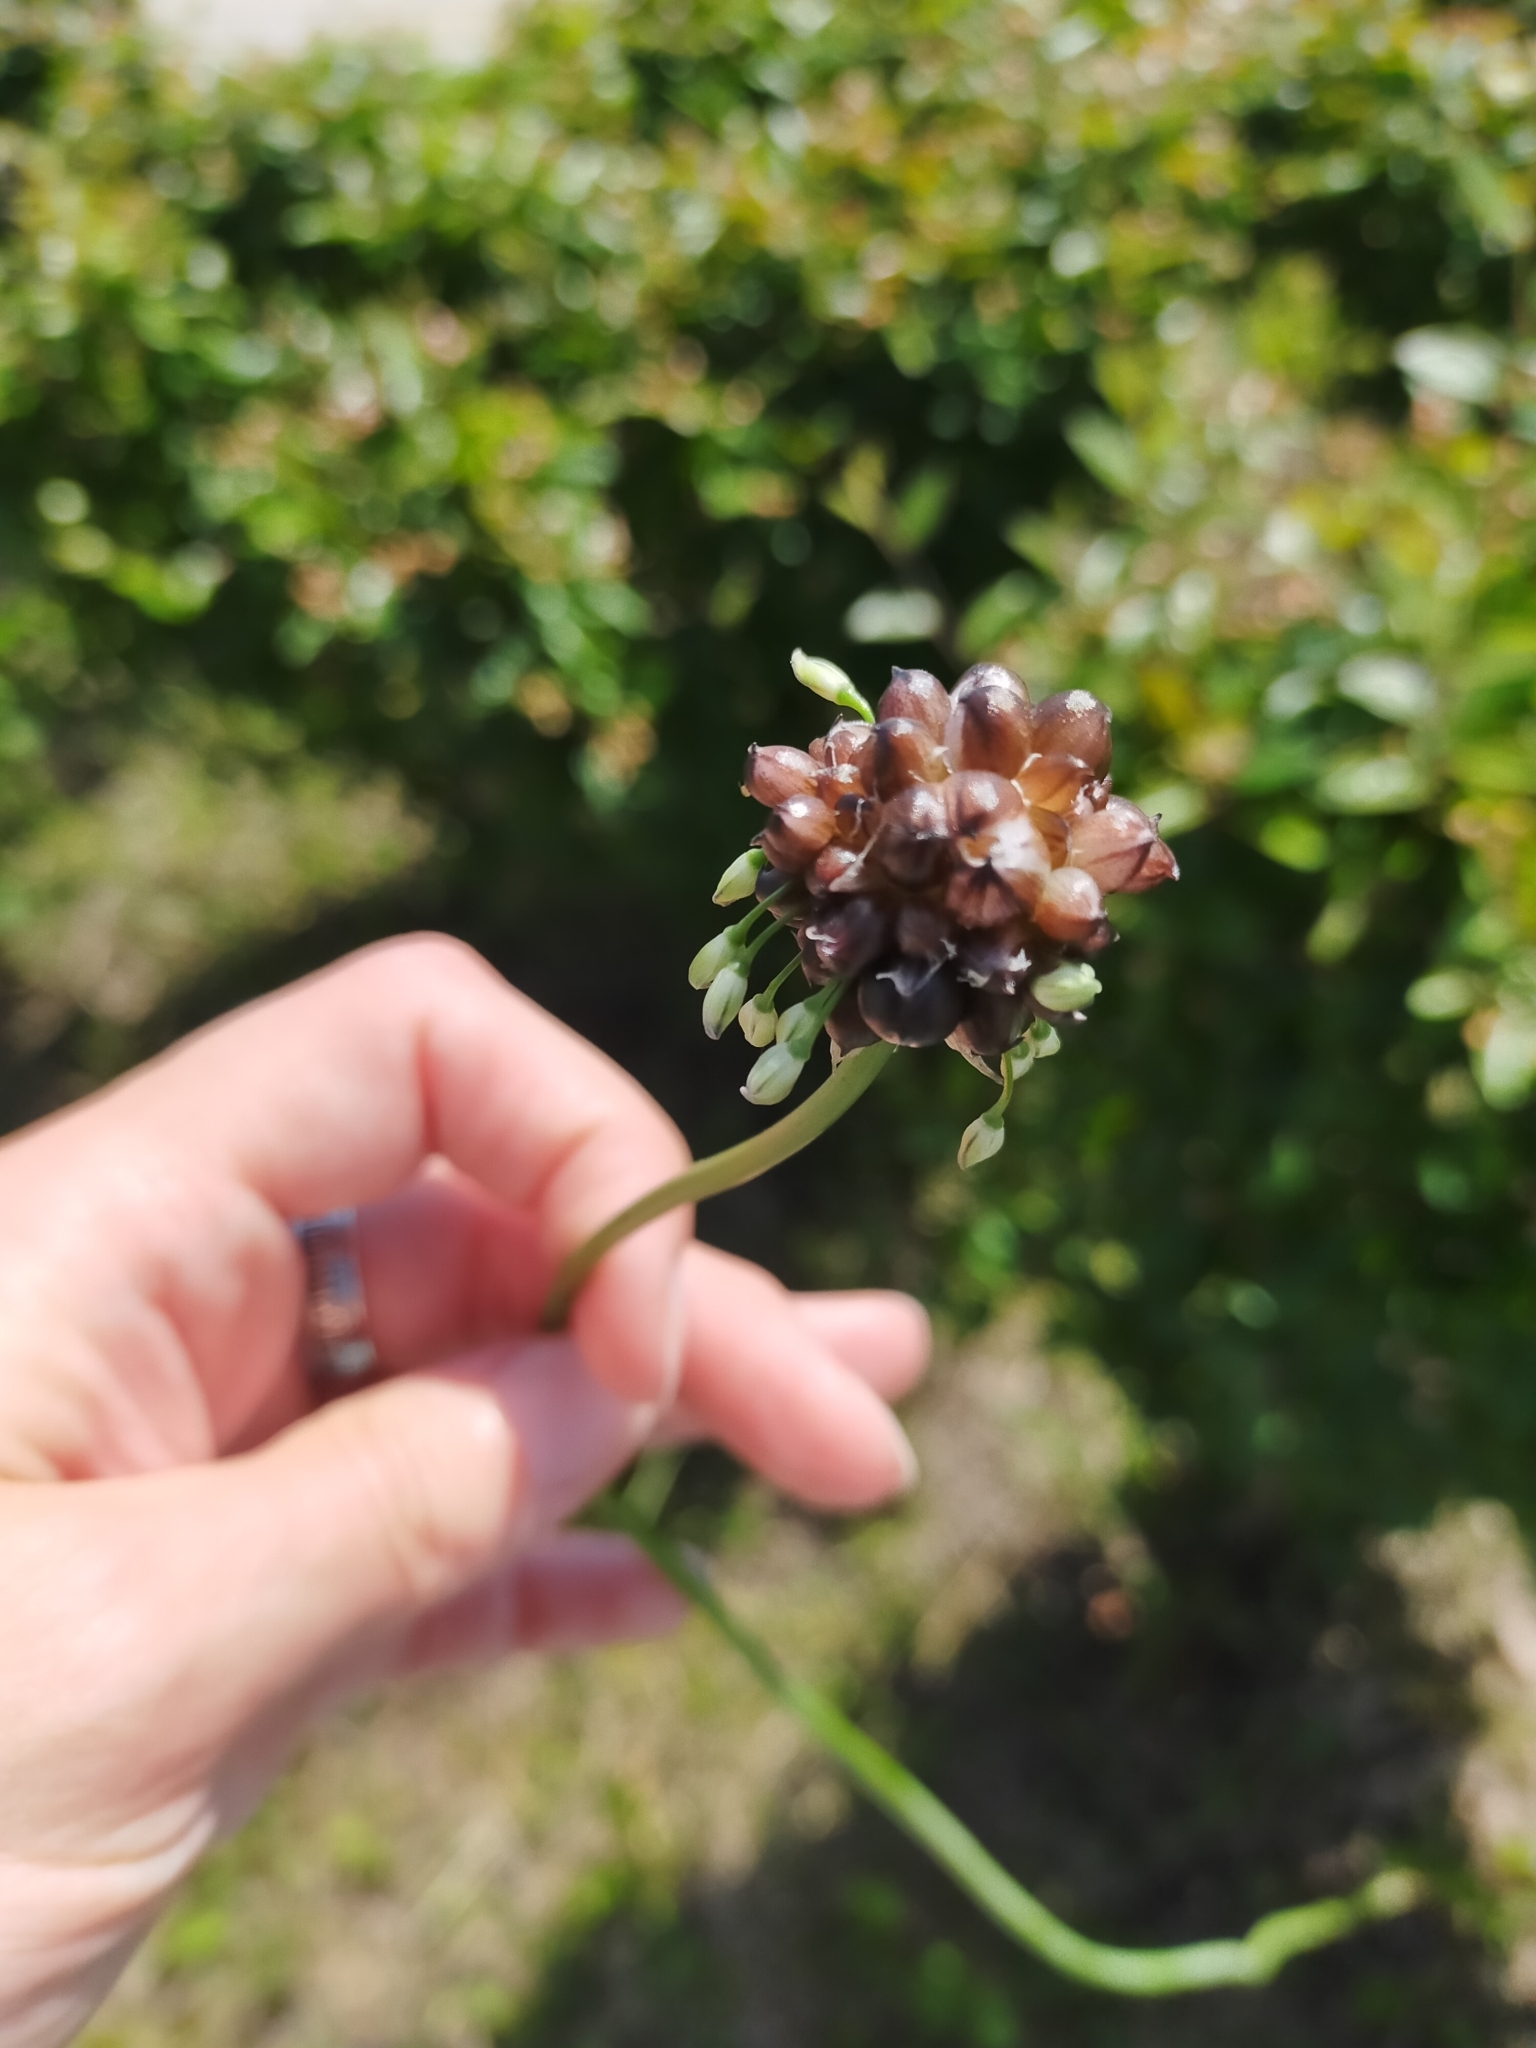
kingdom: Plantae
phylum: Tracheophyta
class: Liliopsida
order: Asparagales
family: Amaryllidaceae
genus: Allium
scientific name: Allium macrostemon
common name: Chinese garlic
